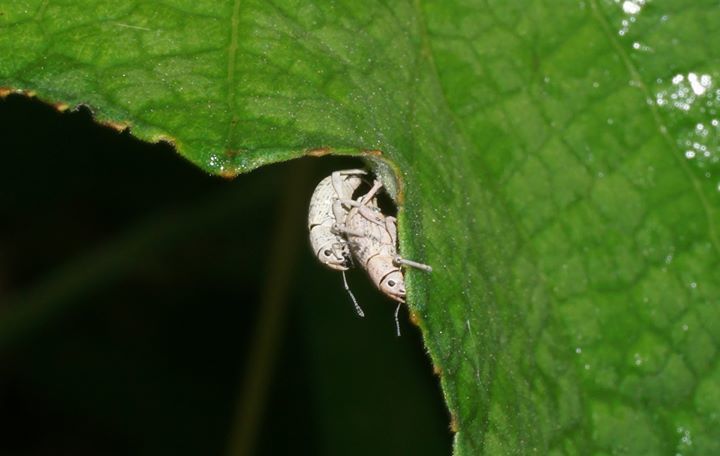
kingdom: Animalia
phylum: Arthropoda
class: Insecta
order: Coleoptera
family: Curculionidae
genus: Artipus
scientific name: Artipus floridanus
